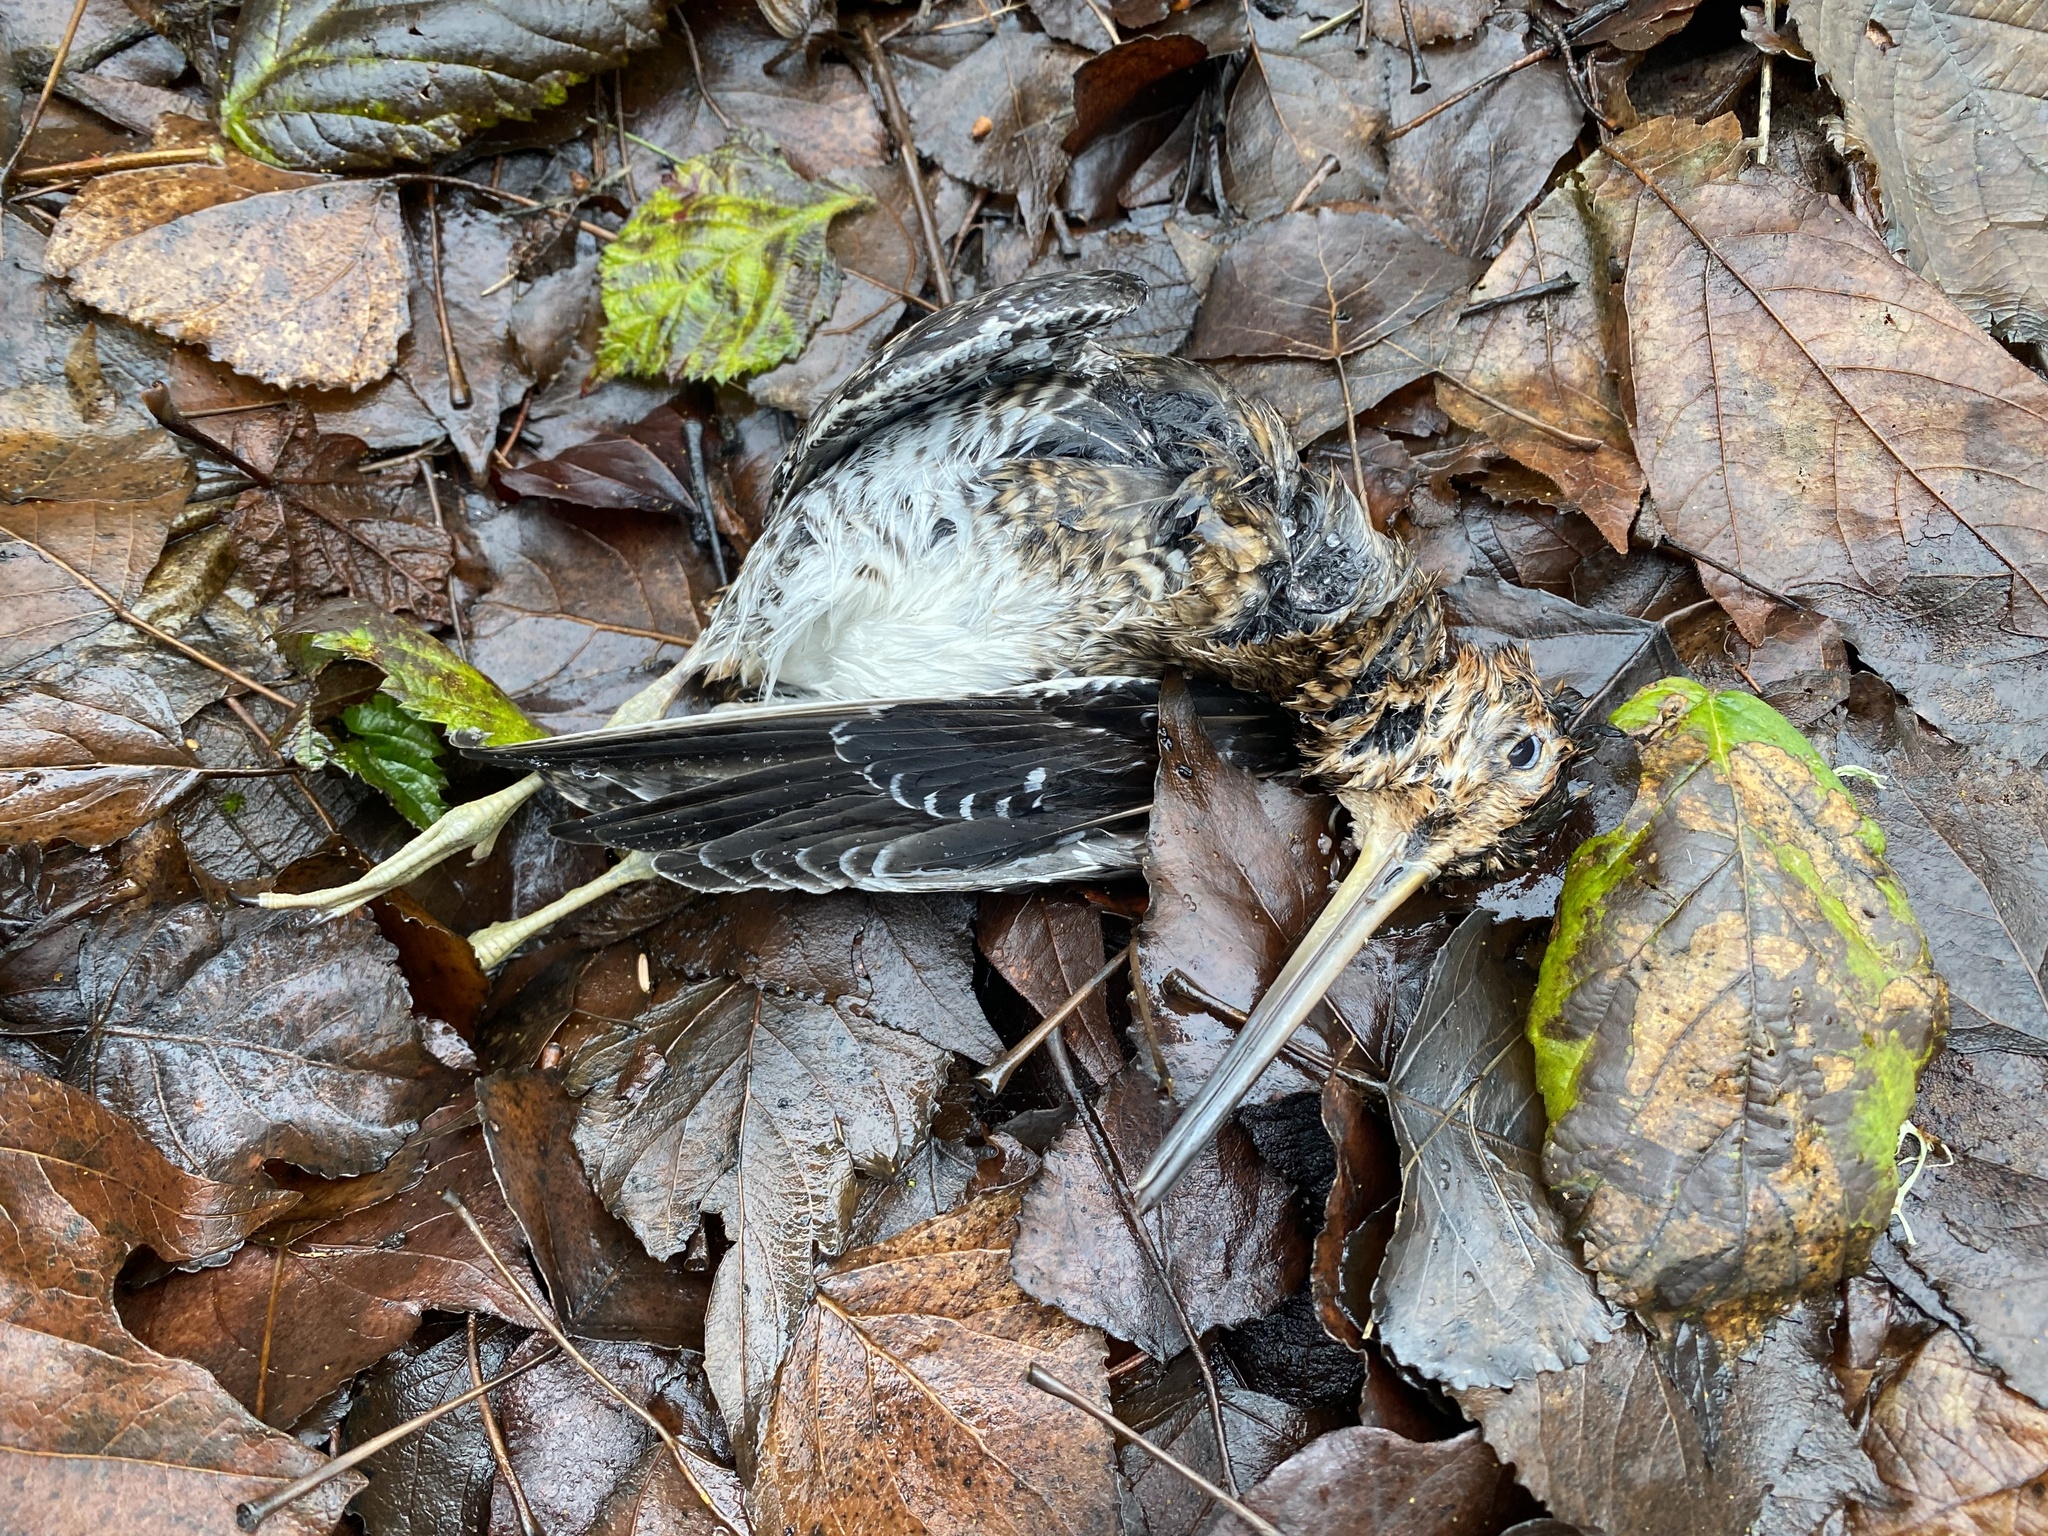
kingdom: Animalia
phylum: Chordata
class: Aves
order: Charadriiformes
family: Scolopacidae
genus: Gallinago
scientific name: Gallinago delicata
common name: Wilson's snipe
